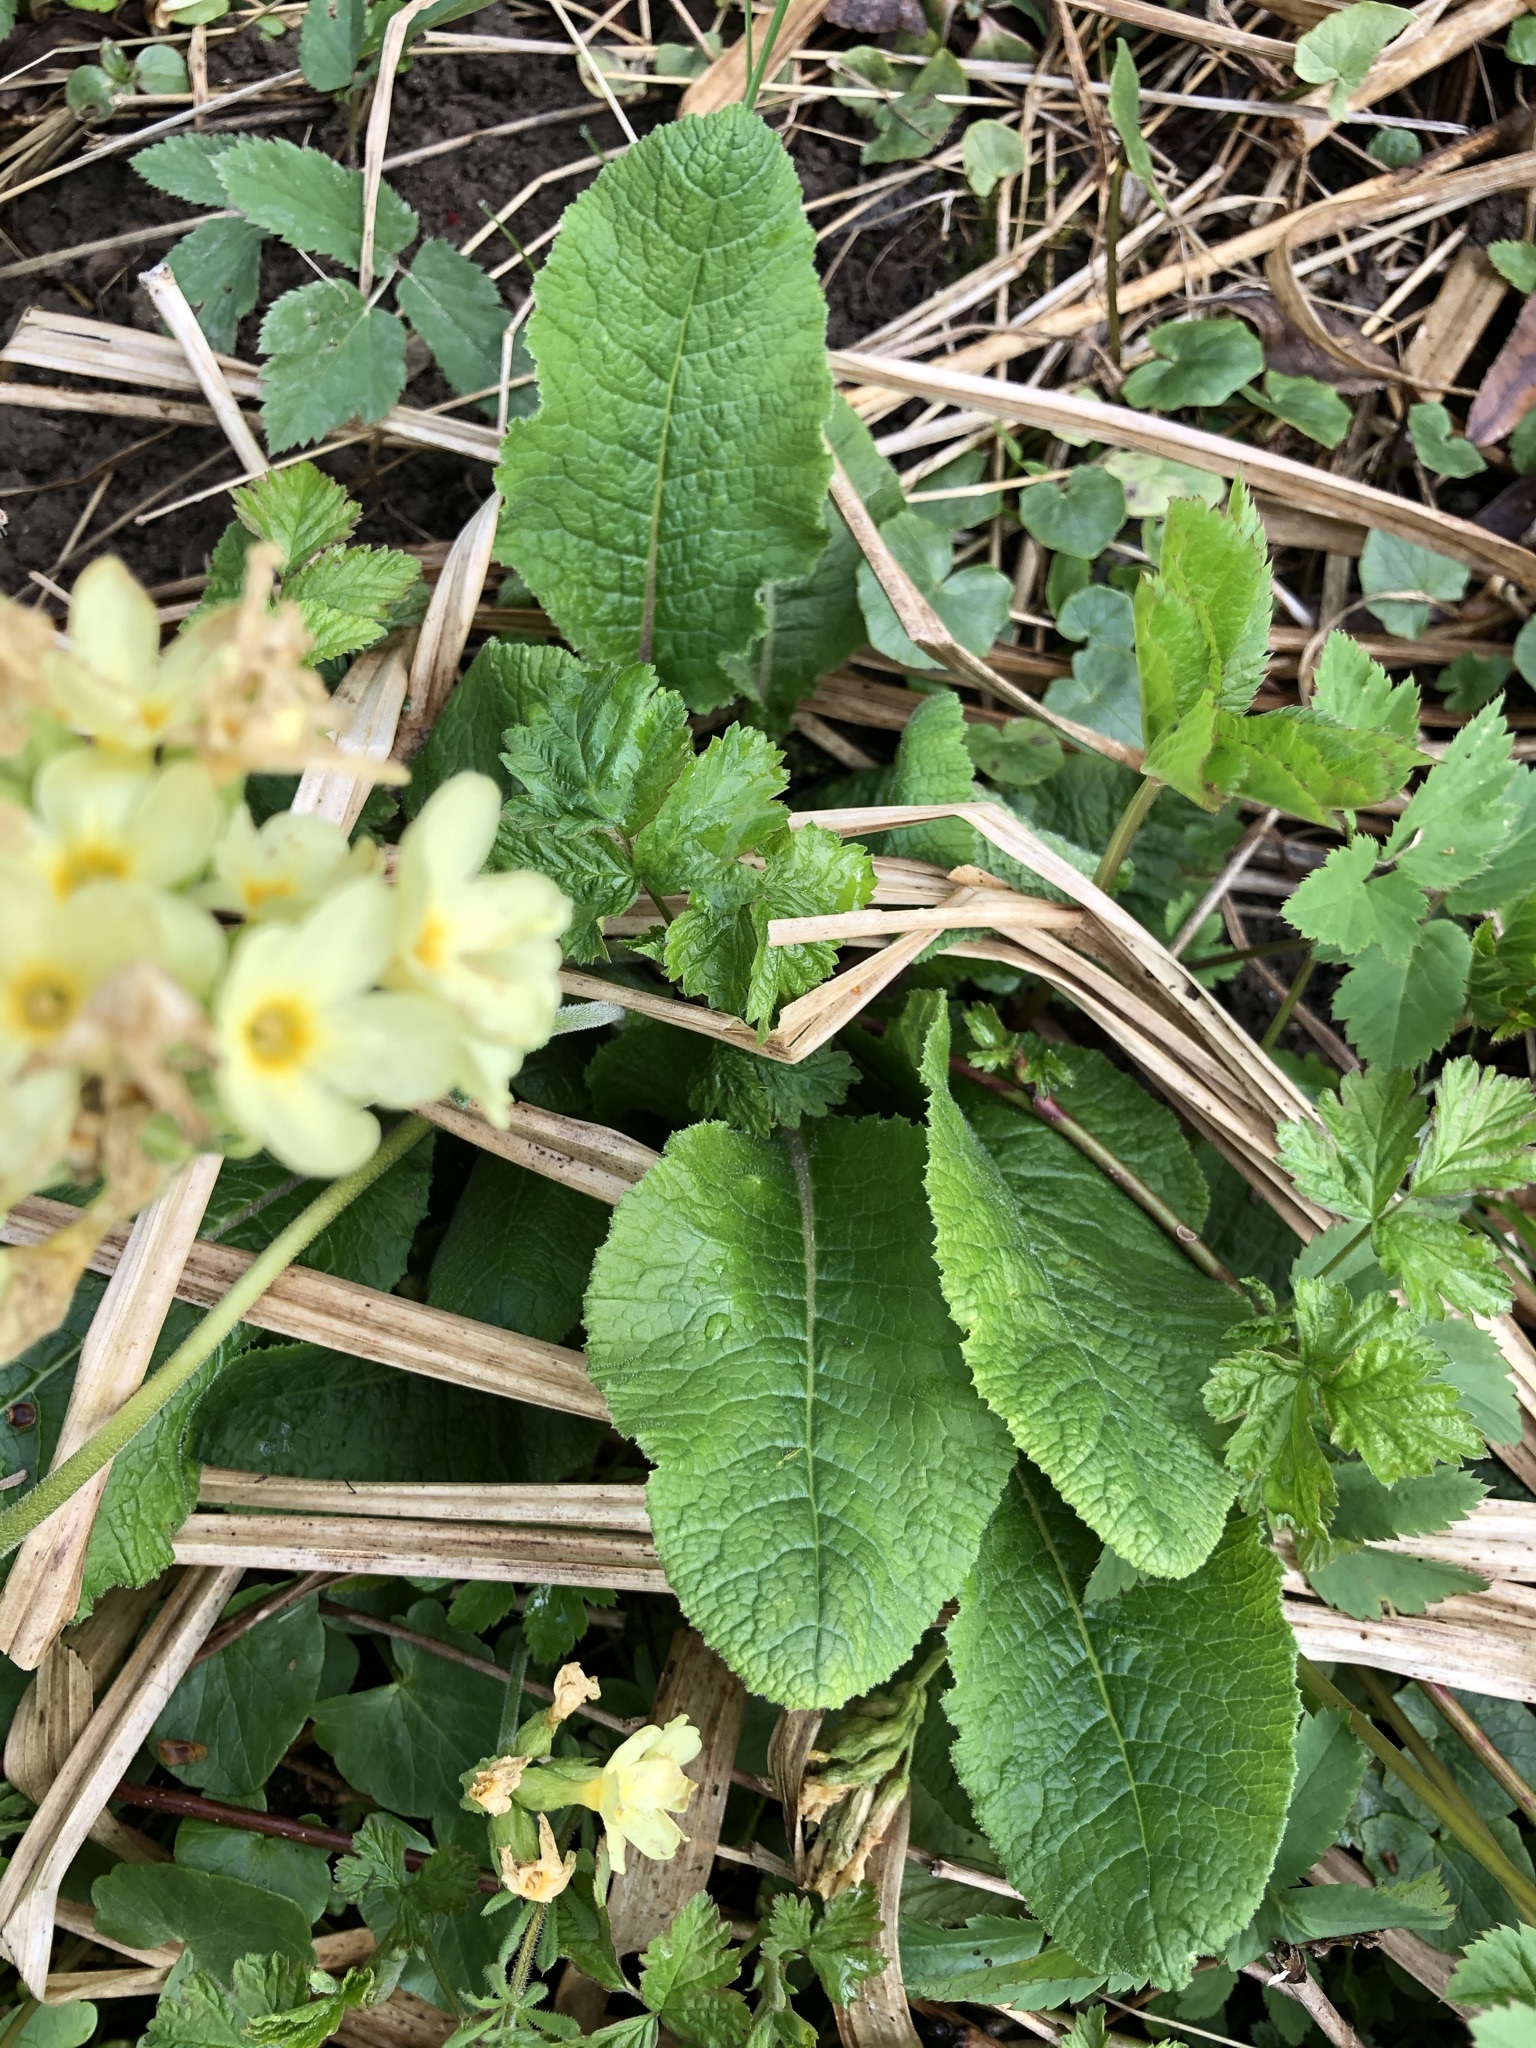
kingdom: Plantae
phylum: Tracheophyta
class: Magnoliopsida
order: Ericales
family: Primulaceae
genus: Primula
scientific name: Primula elatior
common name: Oxlip
